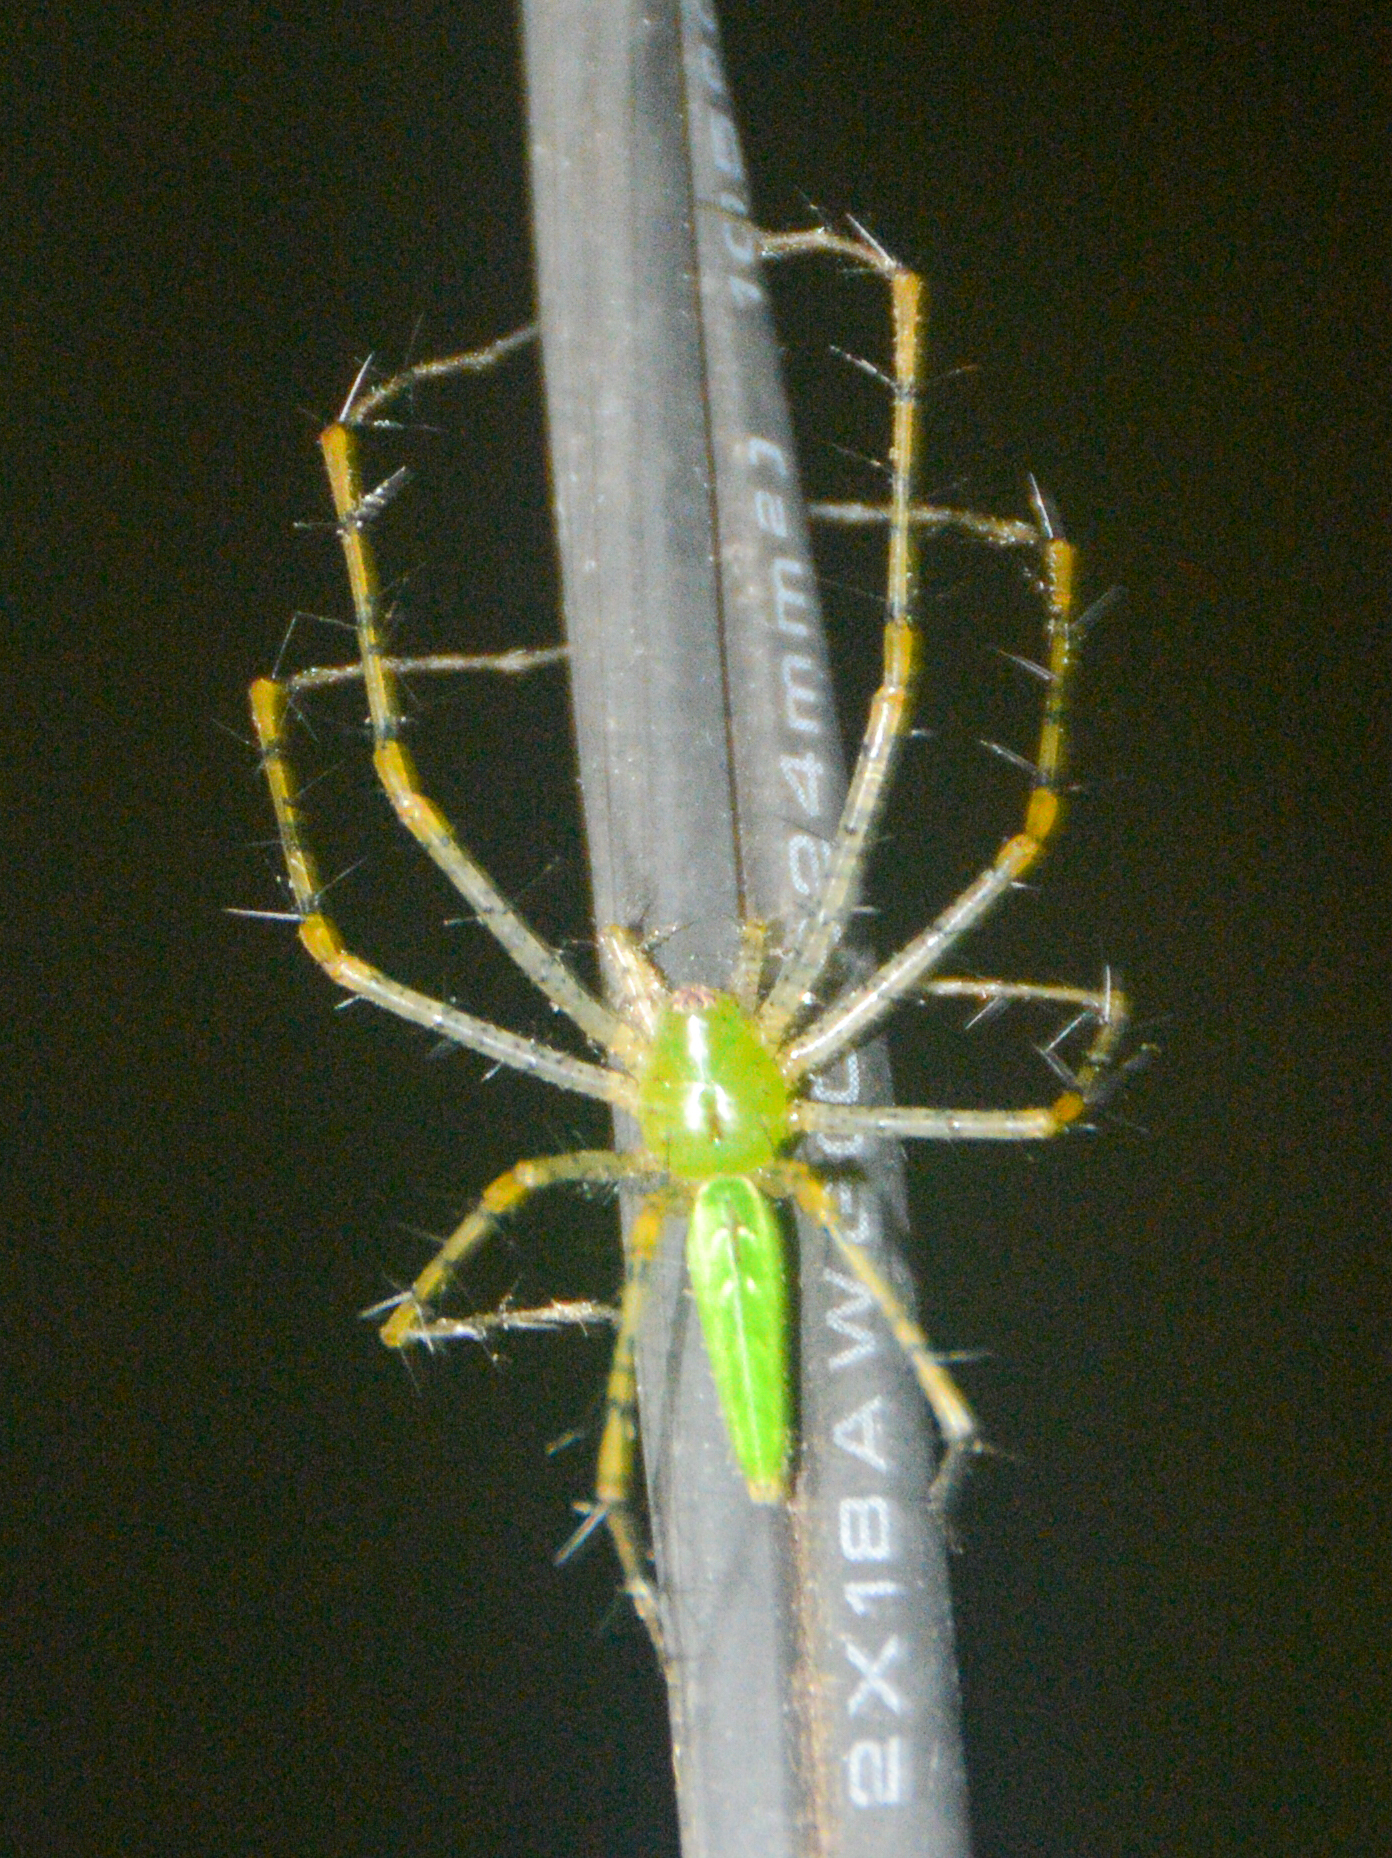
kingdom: Animalia
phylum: Arthropoda
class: Arachnida
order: Araneae
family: Oxyopidae
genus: Peucetia
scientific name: Peucetia viridans
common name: Lynx spiders
